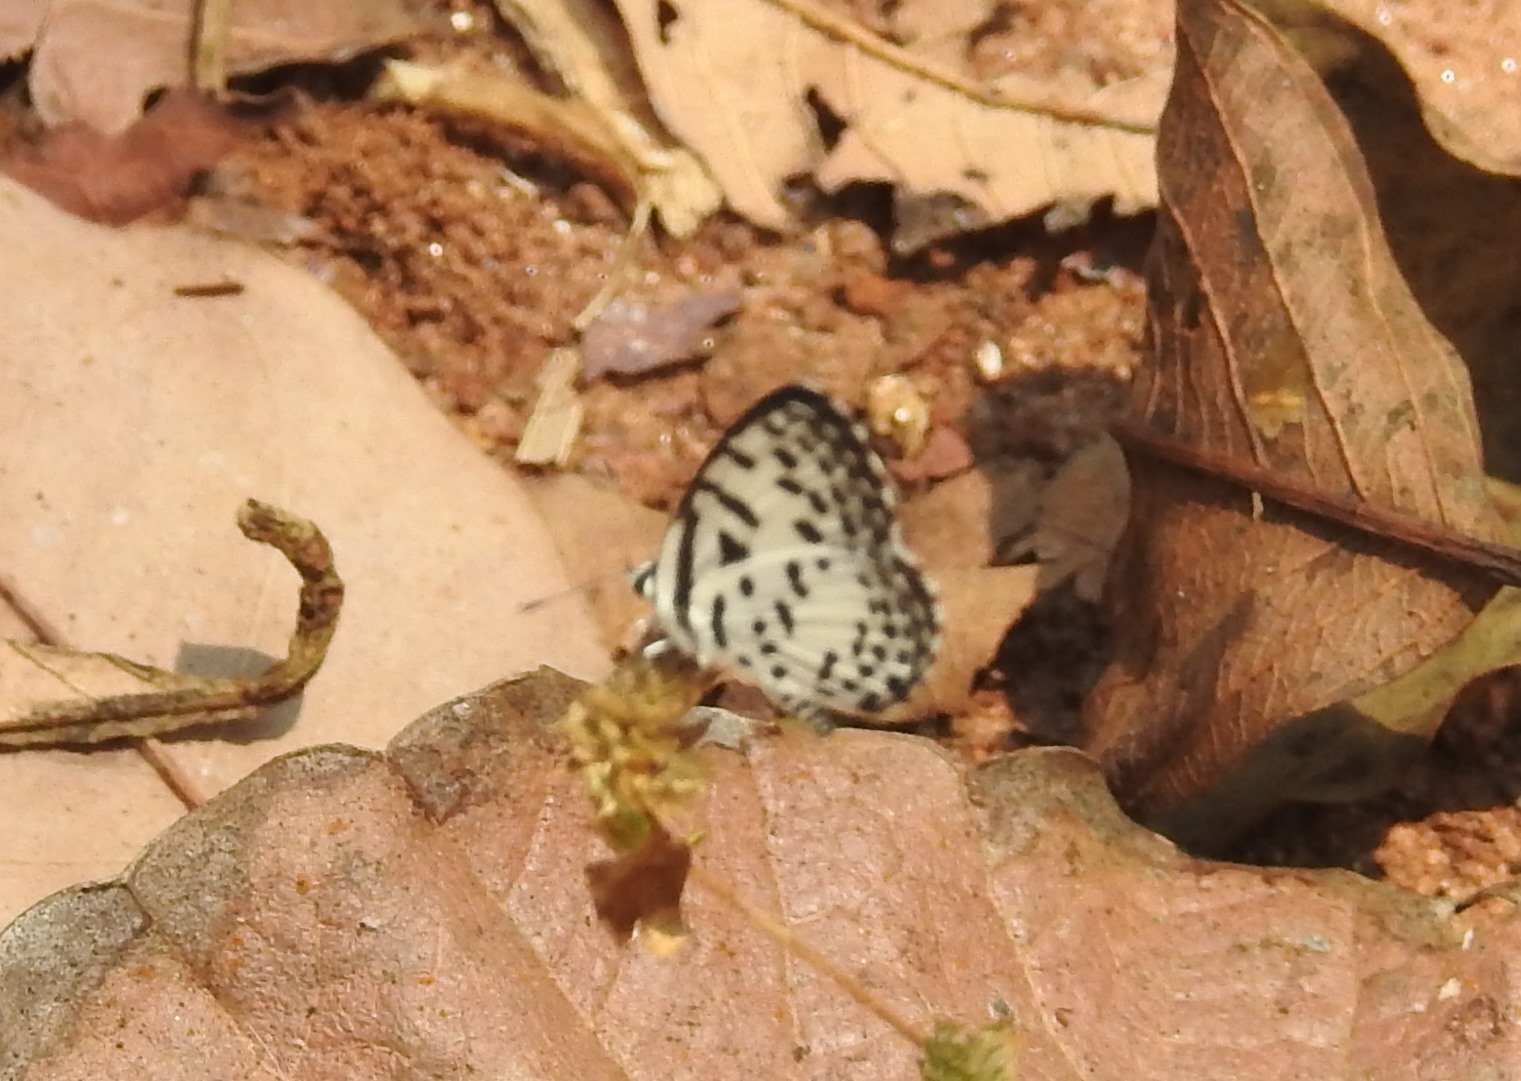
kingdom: Animalia
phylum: Arthropoda
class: Insecta
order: Lepidoptera
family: Lycaenidae
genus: Castalius
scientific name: Castalius rosimon
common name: Common pierrot
